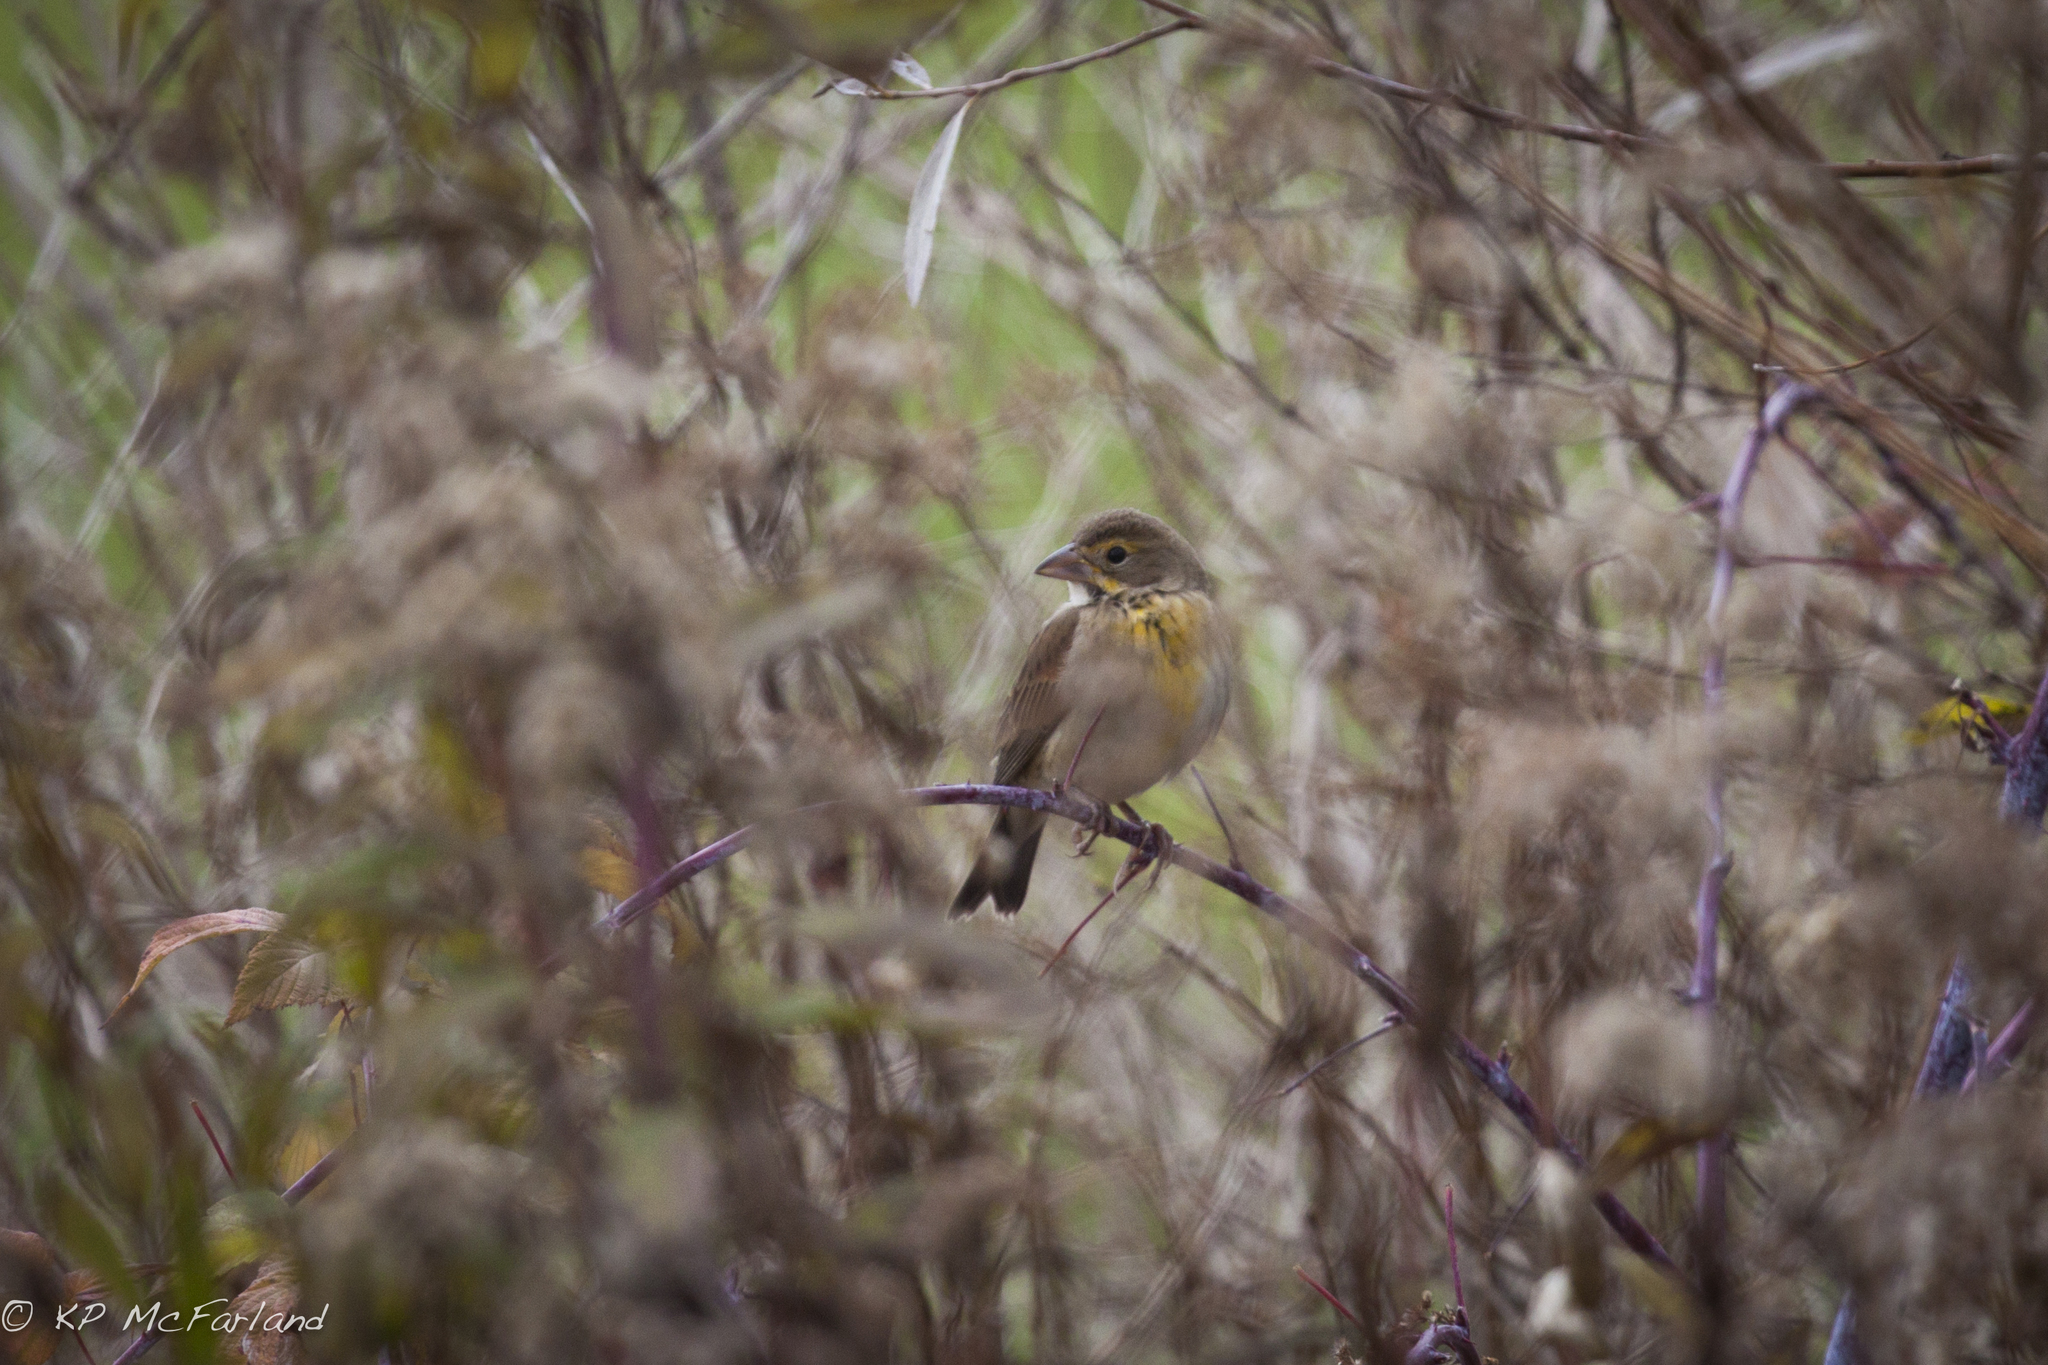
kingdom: Animalia
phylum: Chordata
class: Aves
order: Passeriformes
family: Cardinalidae
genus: Spiza
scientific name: Spiza americana
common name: Dickcissel
